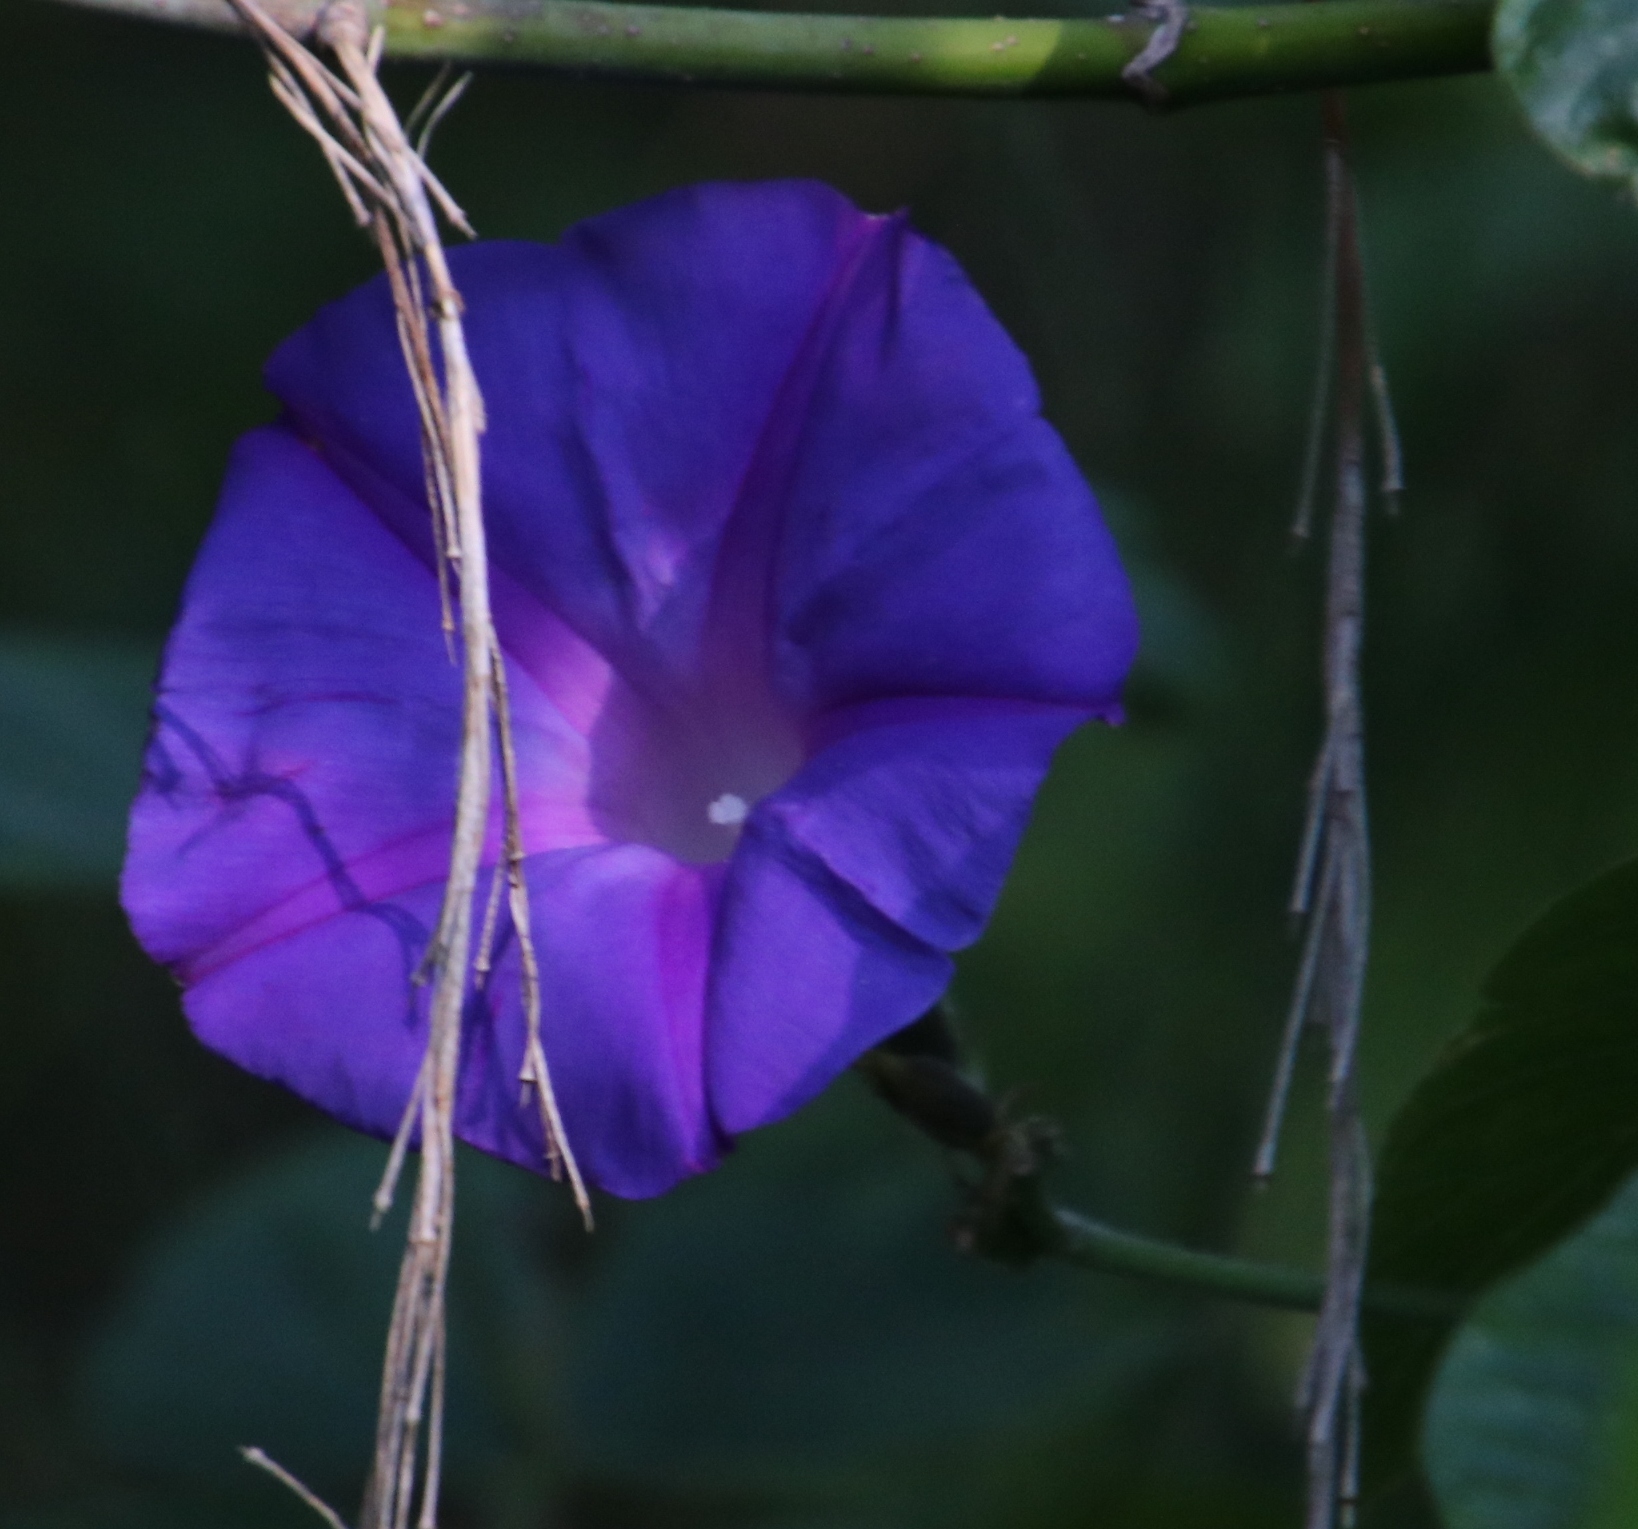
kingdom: Plantae
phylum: Tracheophyta
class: Magnoliopsida
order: Solanales
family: Convolvulaceae
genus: Ipomoea
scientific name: Ipomoea indica
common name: Blue dawnflower
